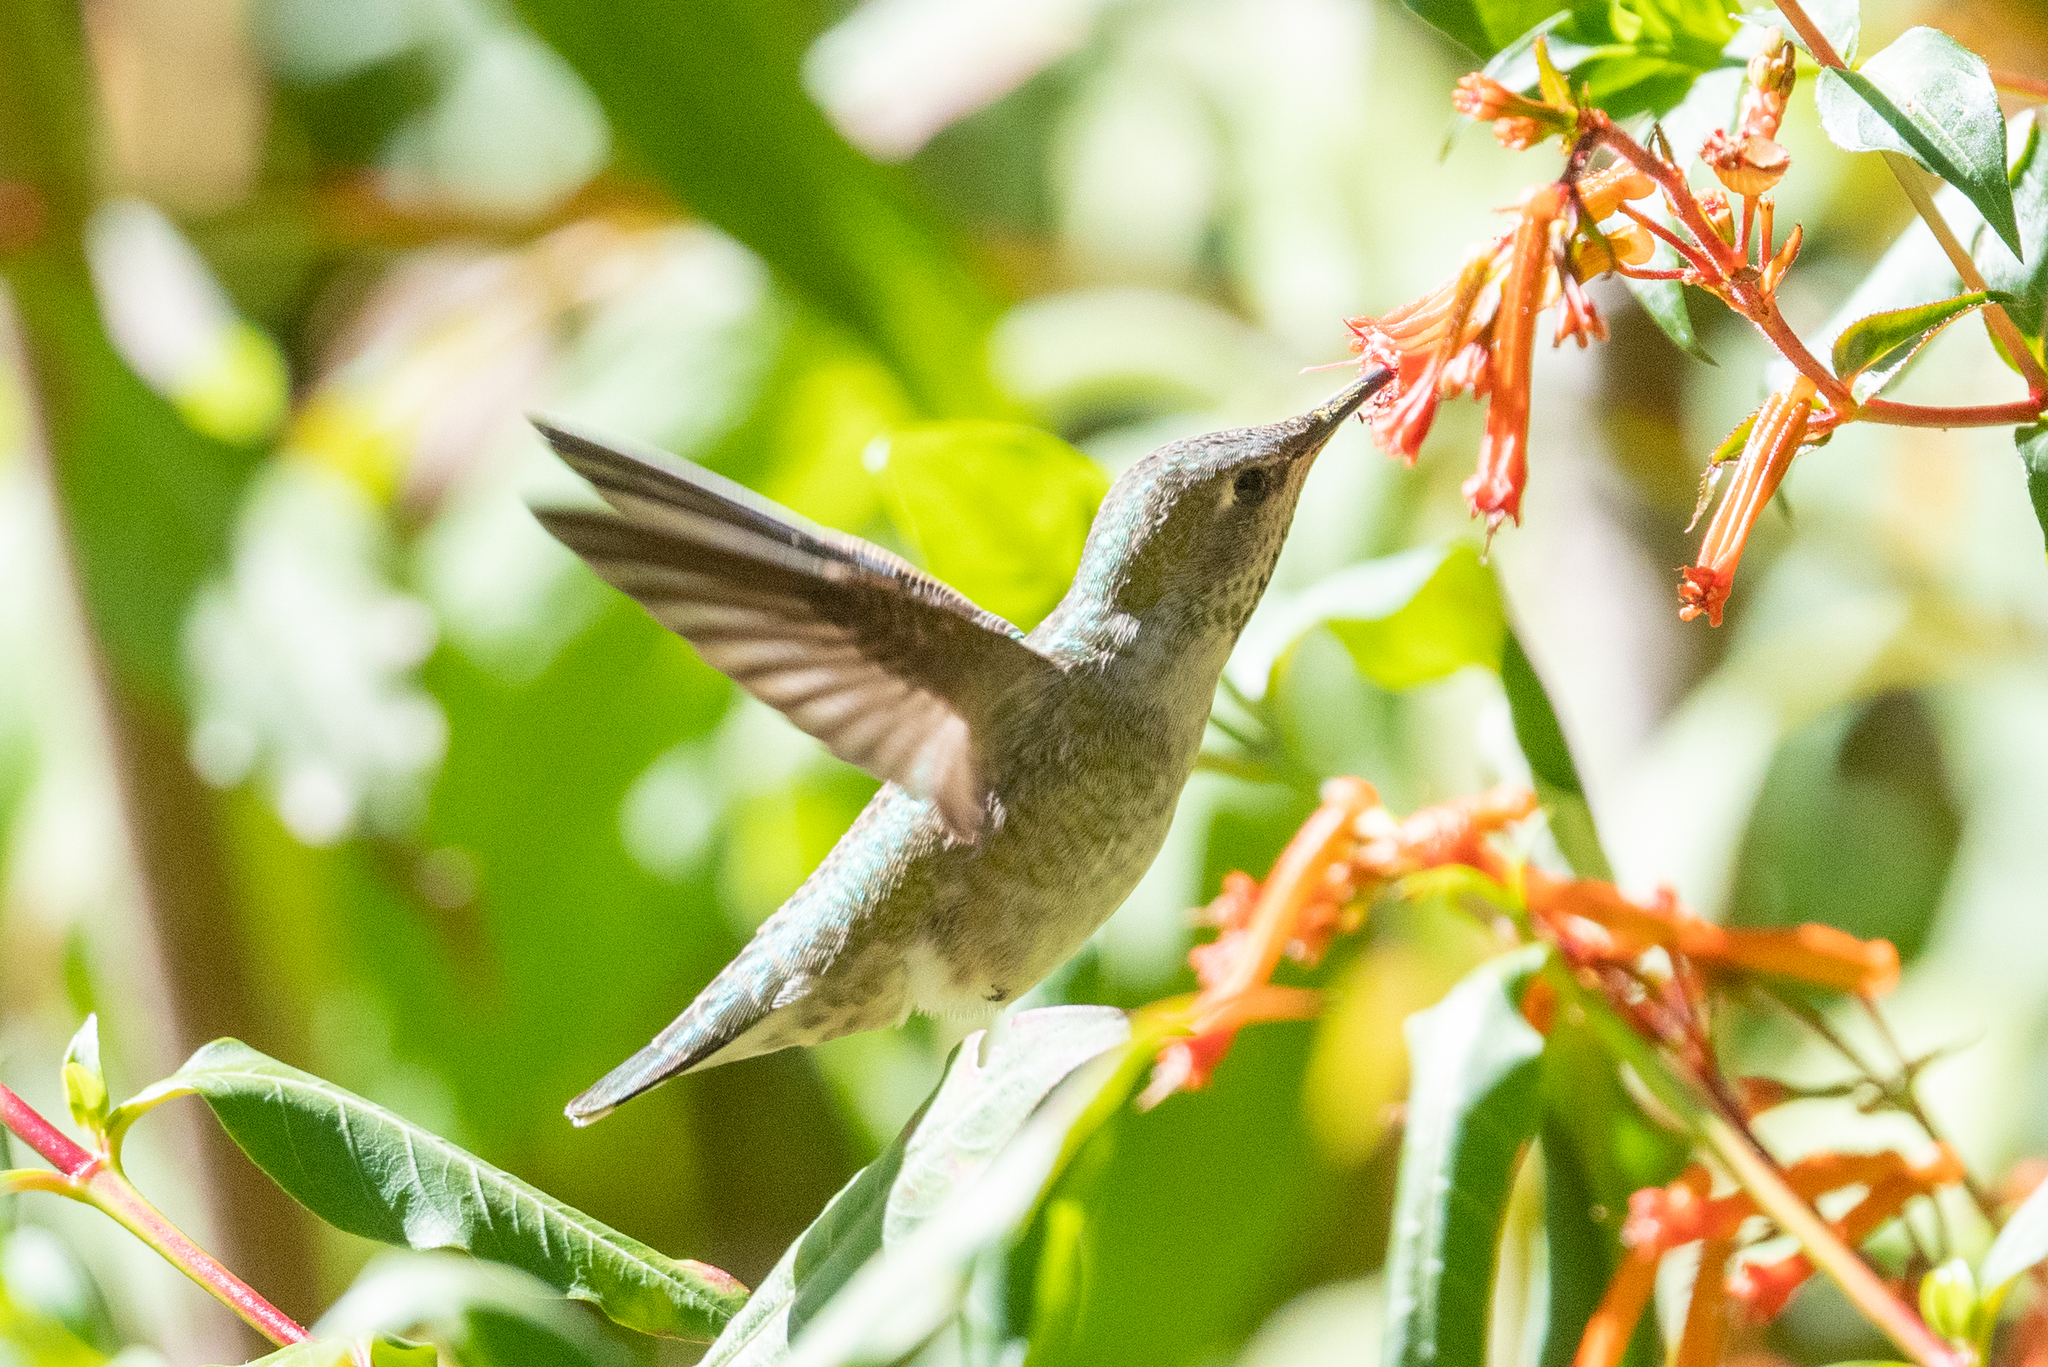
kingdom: Animalia
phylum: Chordata
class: Aves
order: Apodiformes
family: Trochilidae
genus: Calypte
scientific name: Calypte anna
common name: Anna's hummingbird
